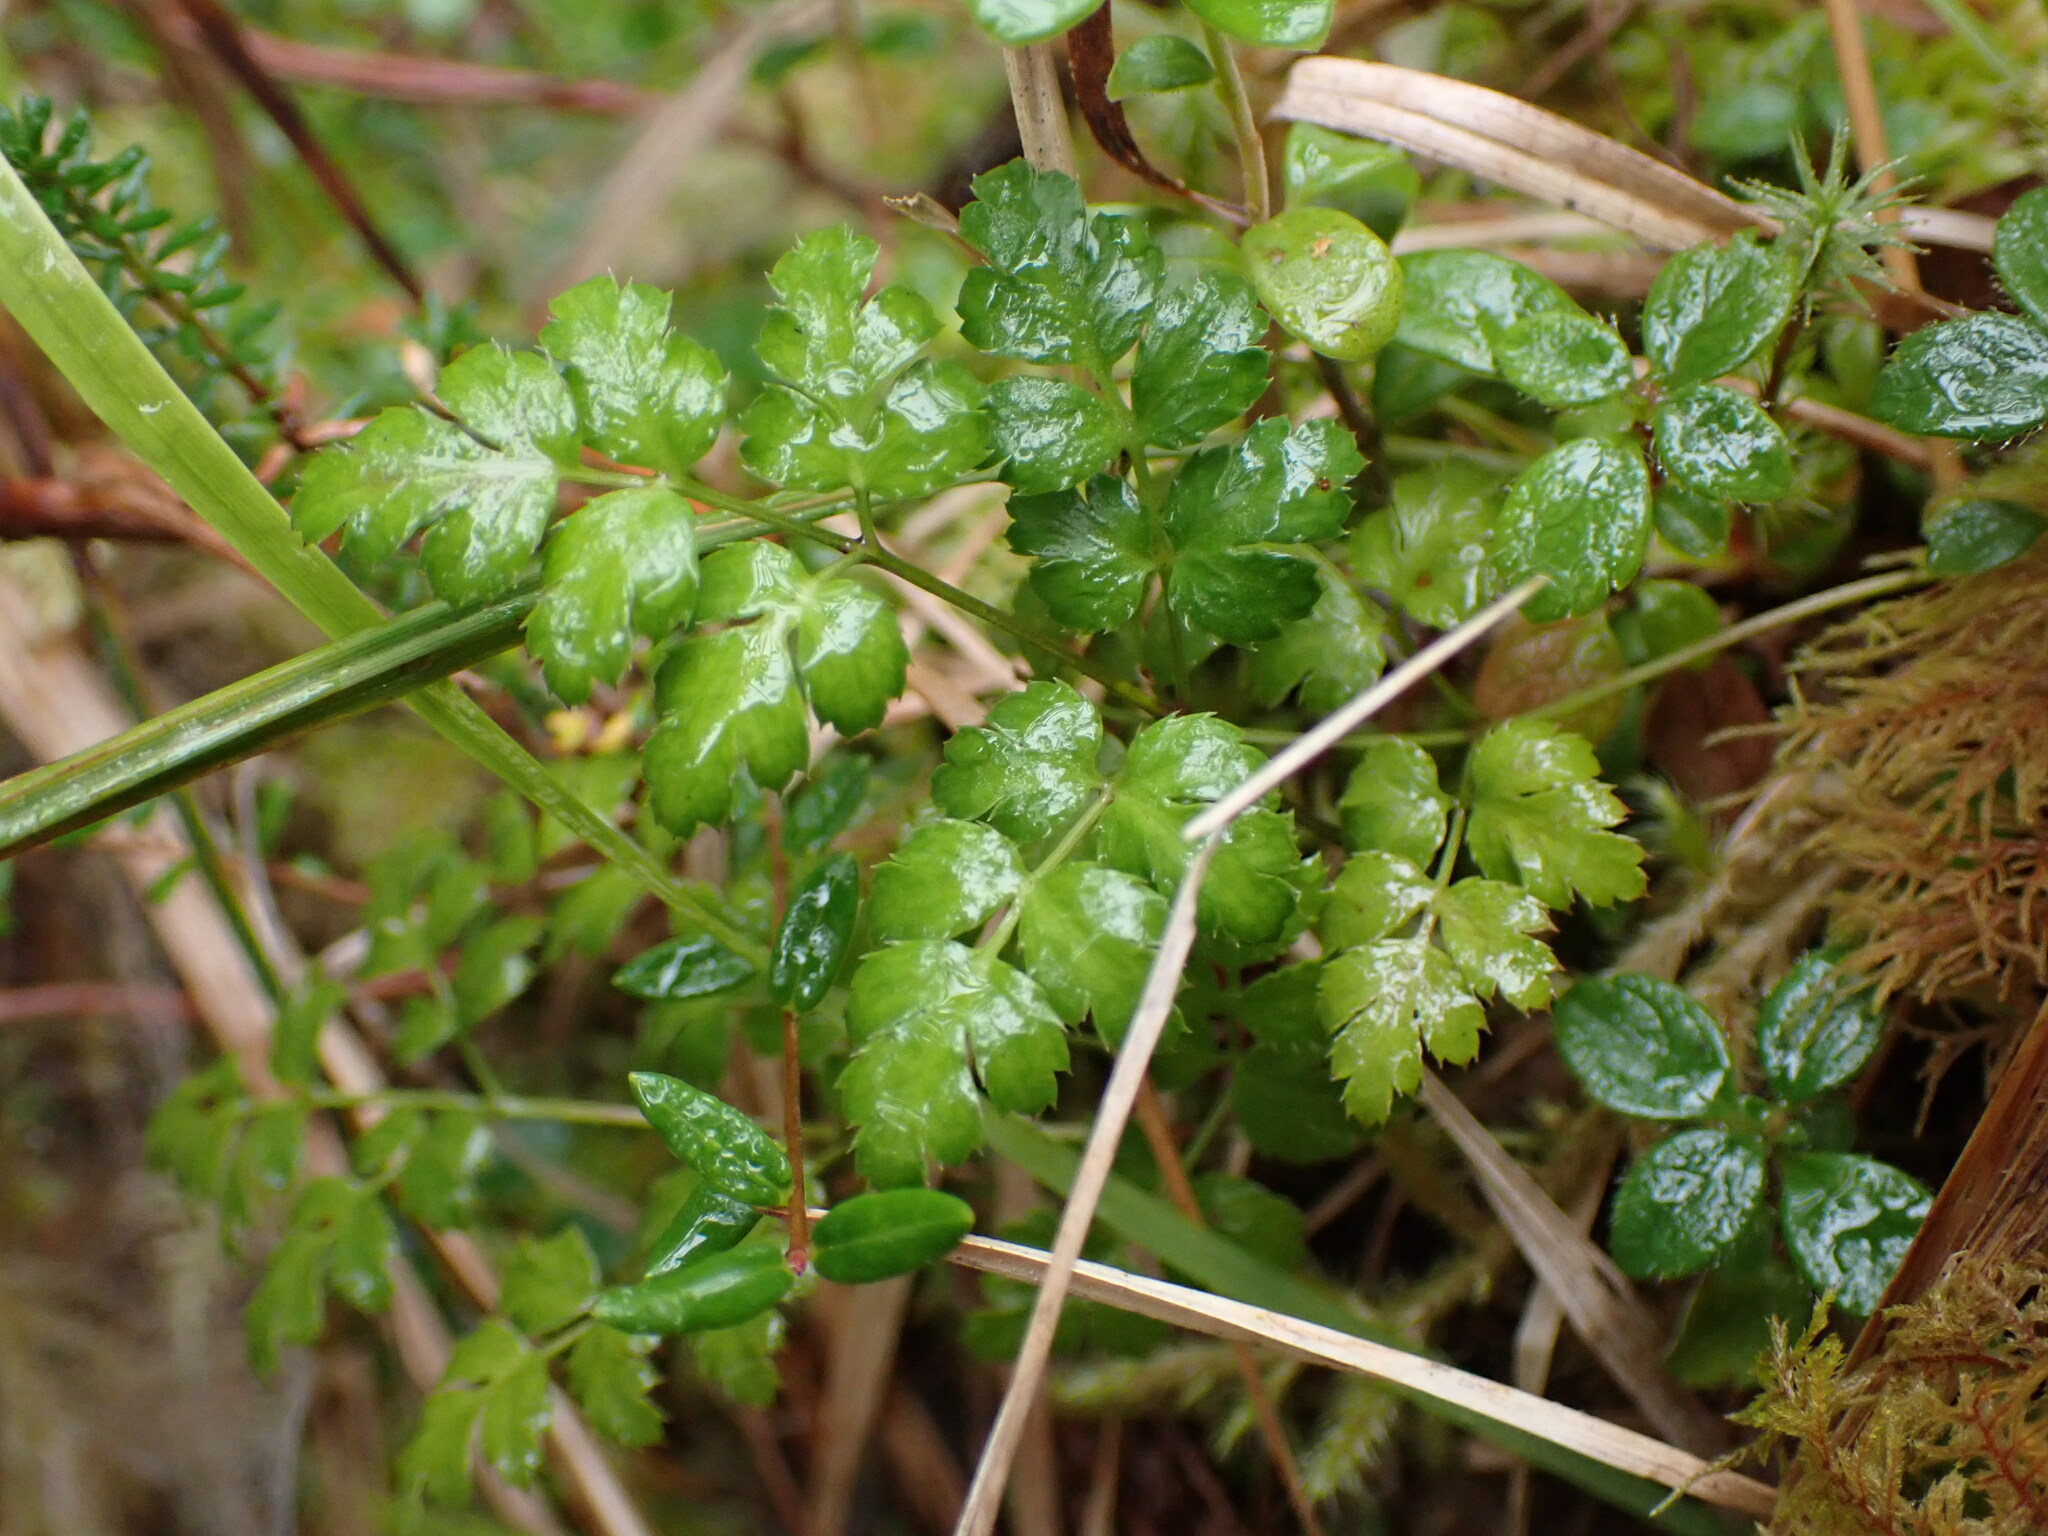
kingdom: Plantae
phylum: Tracheophyta
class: Magnoliopsida
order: Ranunculales
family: Ranunculaceae
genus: Coptis
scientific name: Coptis aspleniifolia
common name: Fern-leaved goldthread
